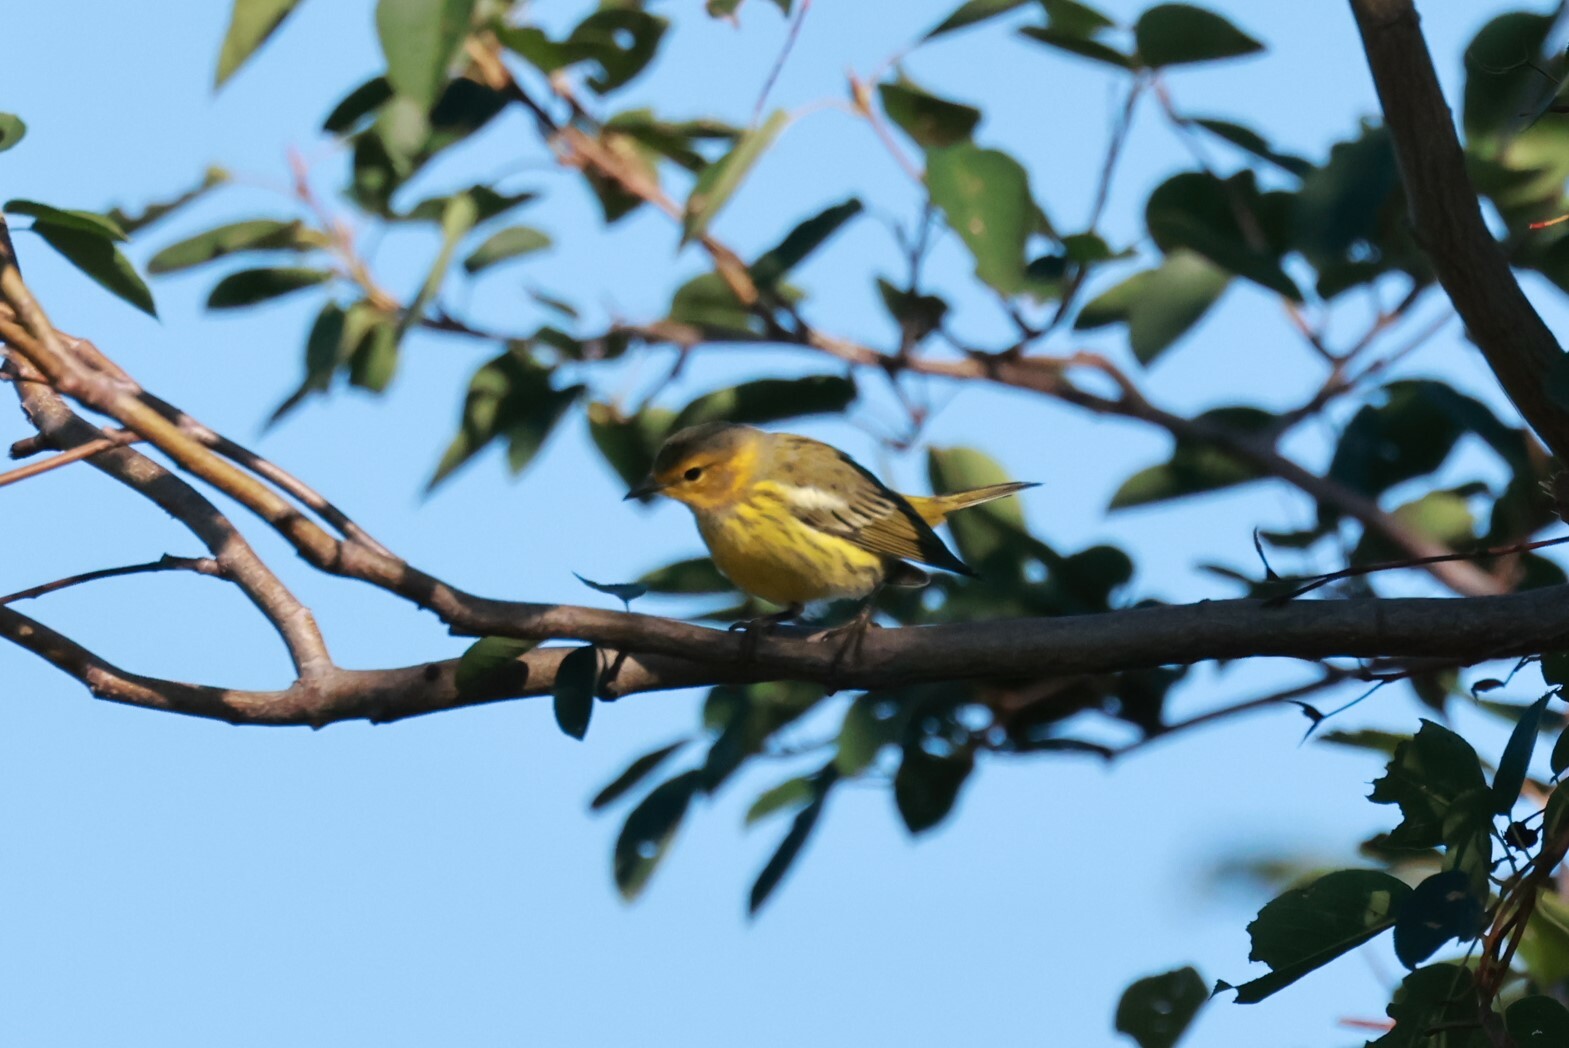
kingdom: Animalia
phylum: Chordata
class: Aves
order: Passeriformes
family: Parulidae
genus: Setophaga
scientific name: Setophaga tigrina
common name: Cape may warbler
